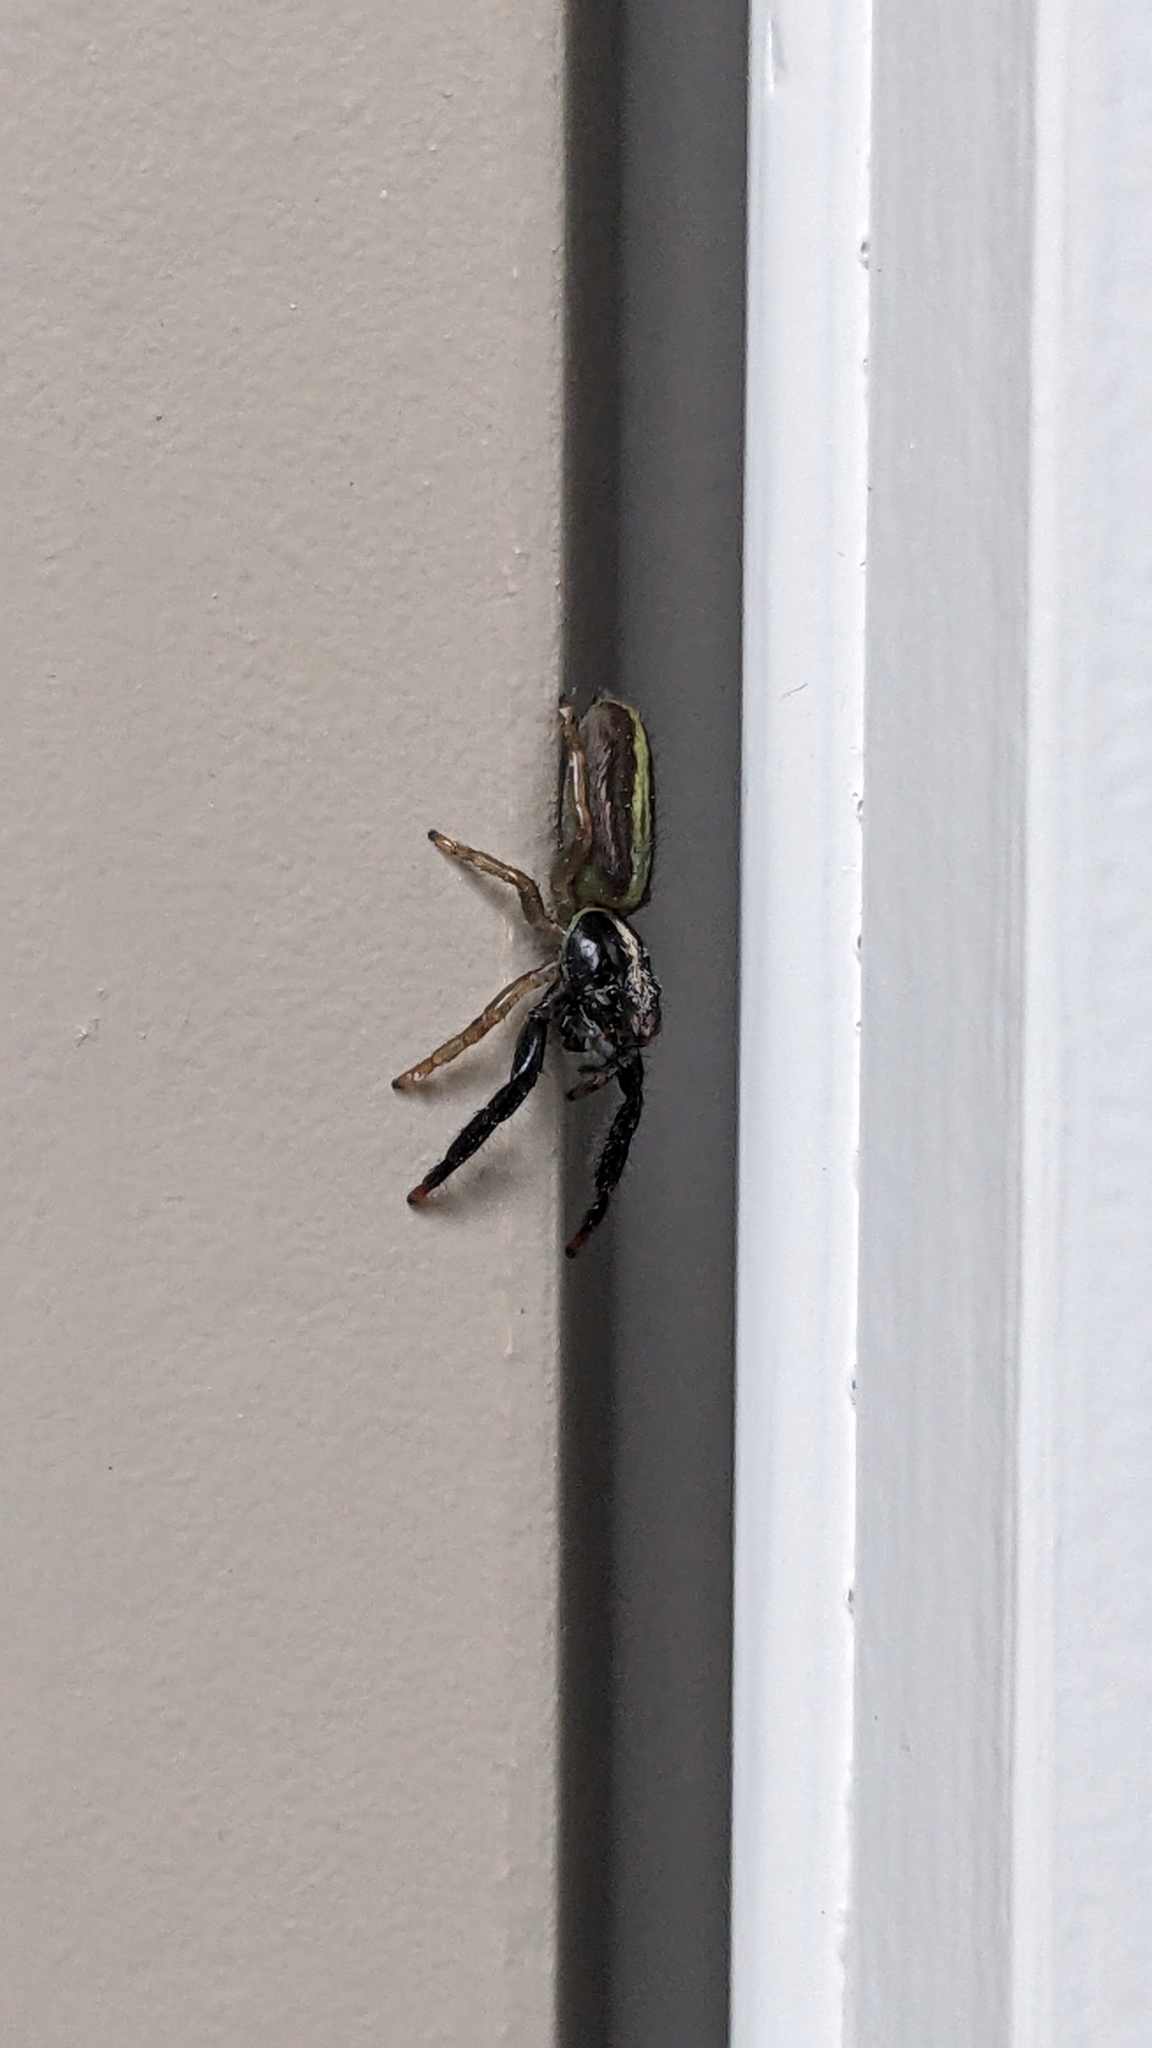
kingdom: Animalia
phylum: Arthropoda
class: Arachnida
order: Araneae
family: Salticidae
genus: Trite
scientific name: Trite planiceps
